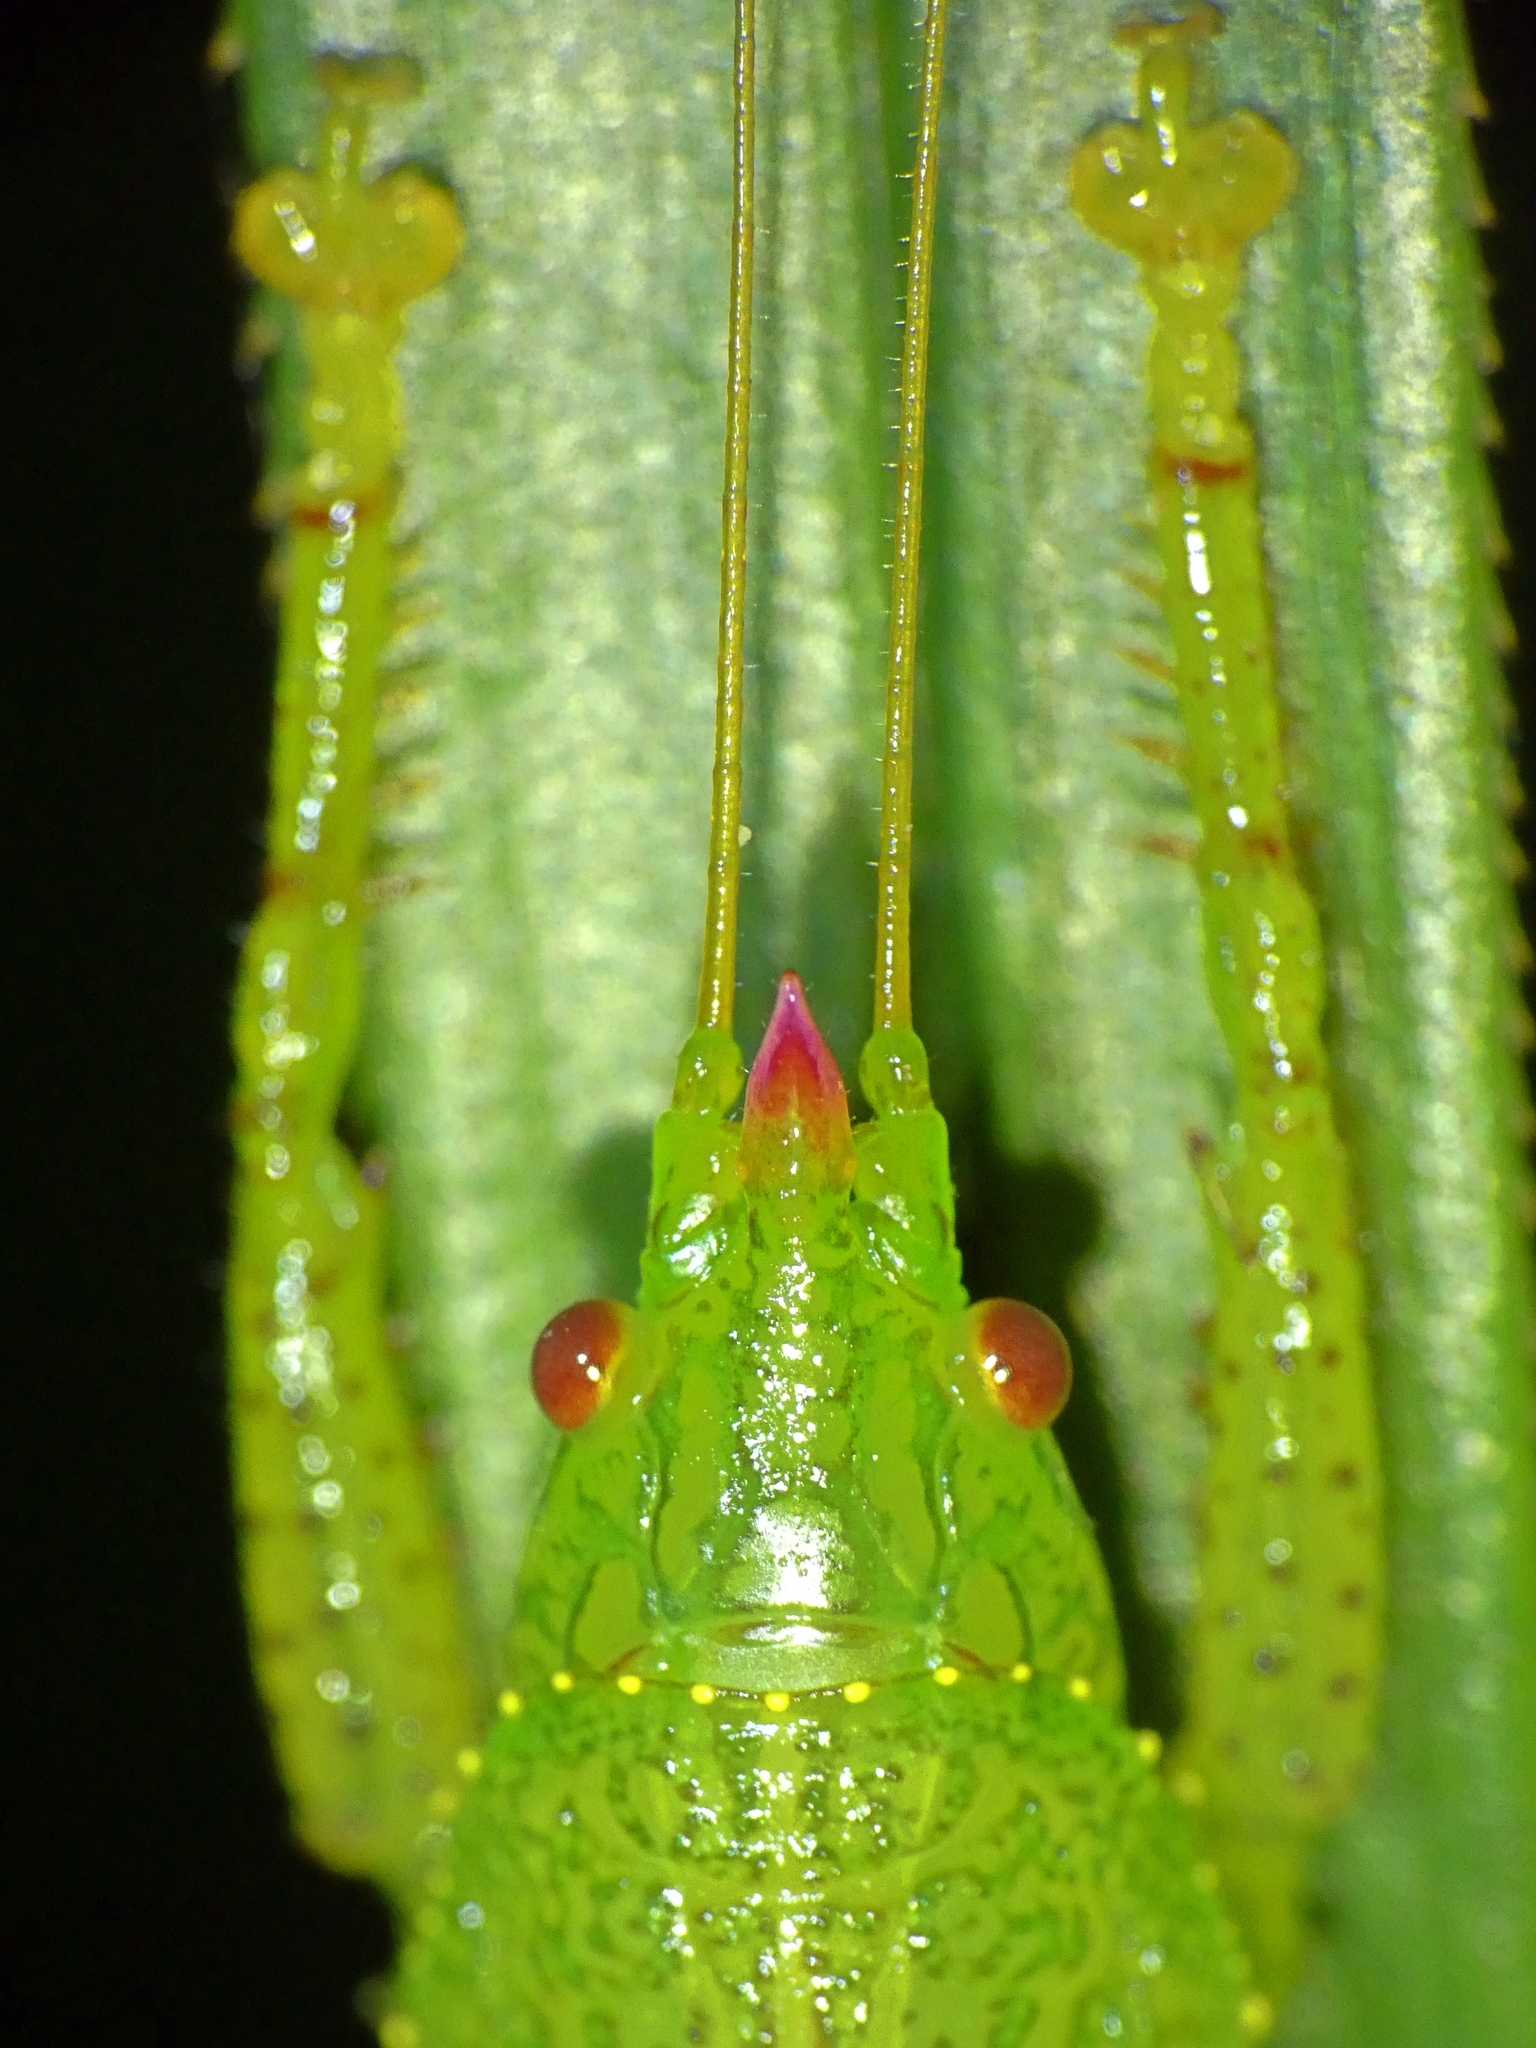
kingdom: Animalia
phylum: Arthropoda
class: Insecta
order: Orthoptera
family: Tettigoniidae
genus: Emeraldagraecia
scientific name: Emeraldagraecia munggarifrons
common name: Pink-faced emerald
